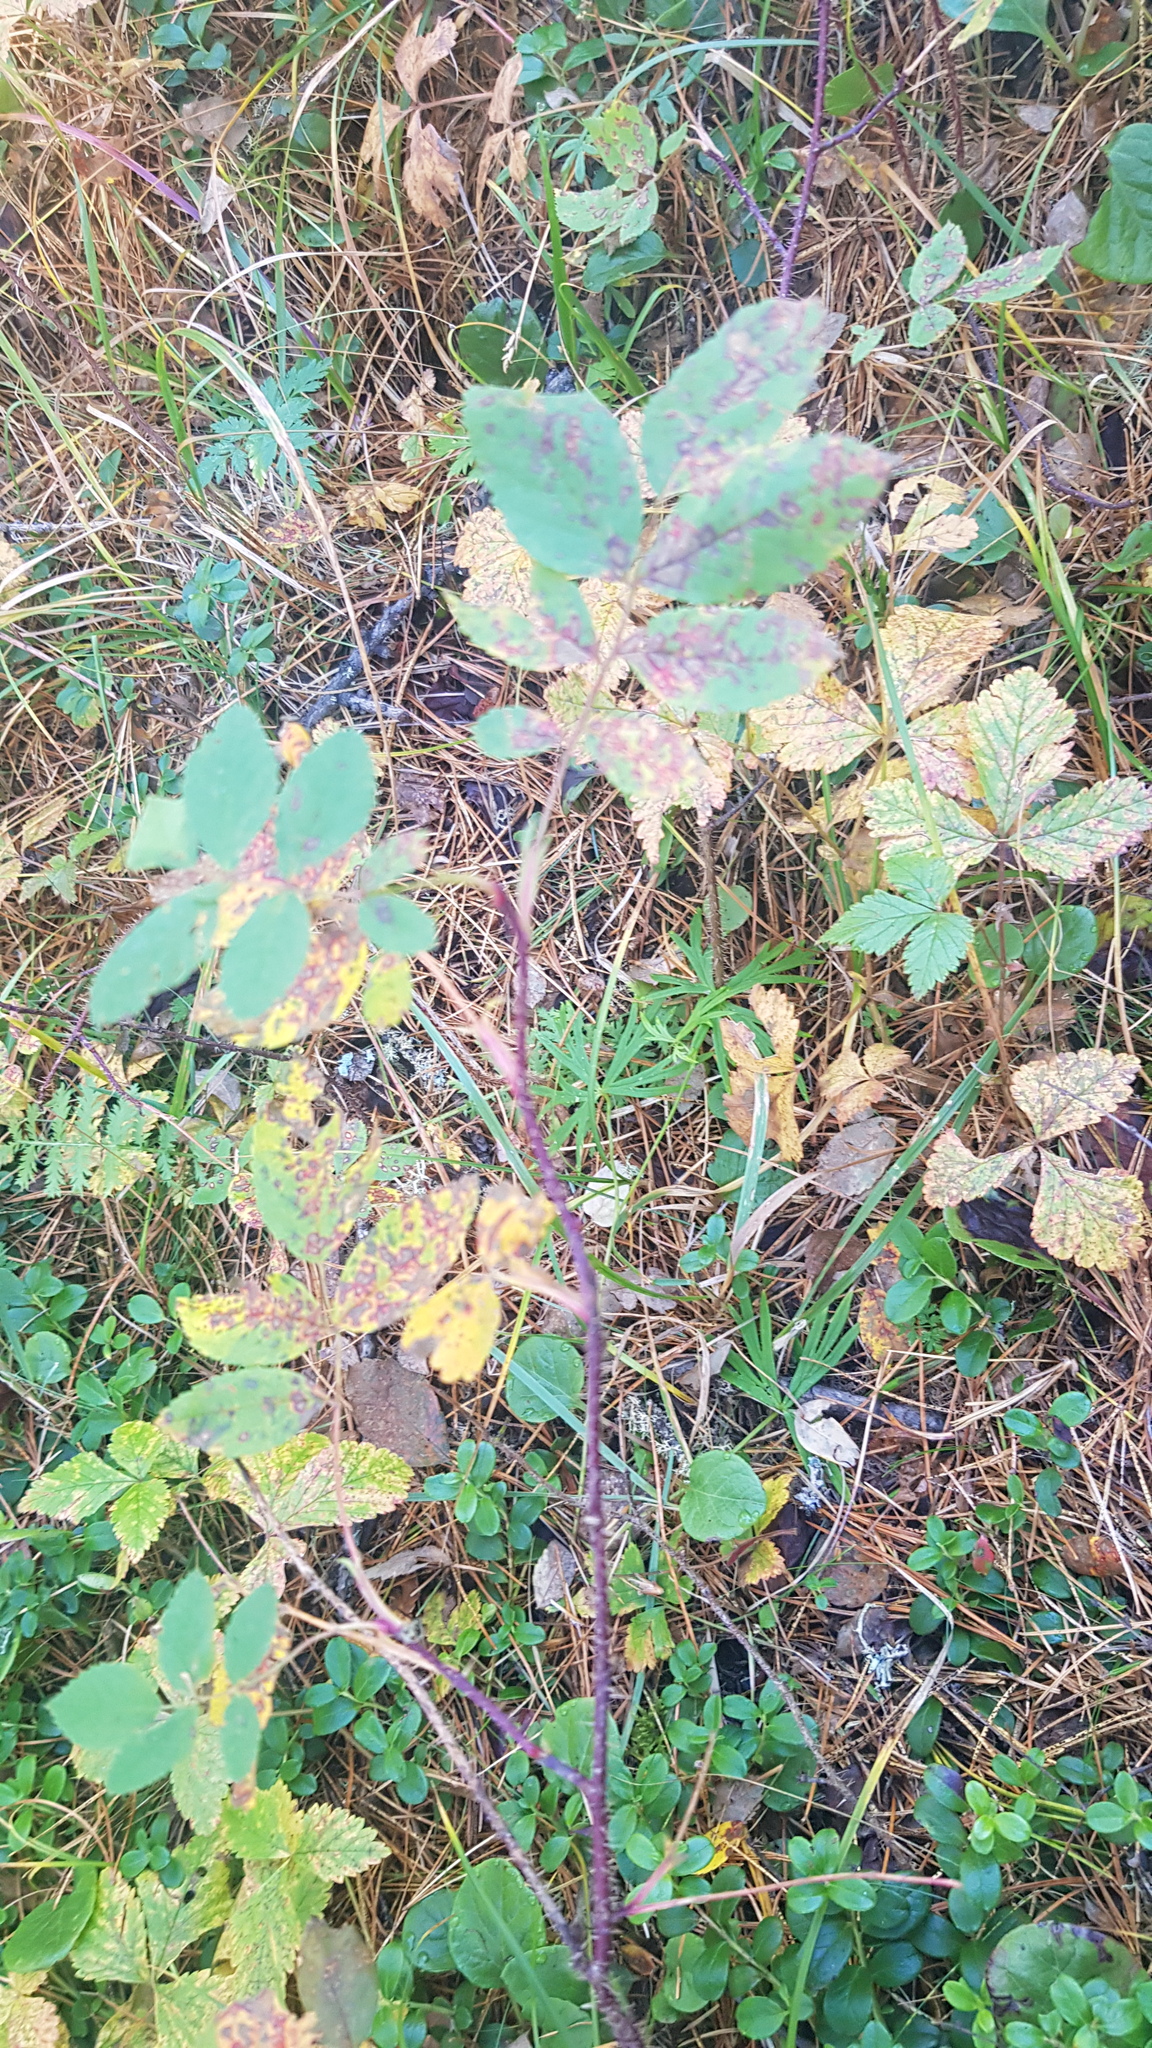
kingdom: Plantae
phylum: Tracheophyta
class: Magnoliopsida
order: Rosales
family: Rosaceae
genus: Rosa
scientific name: Rosa acicularis
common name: Prickly rose
